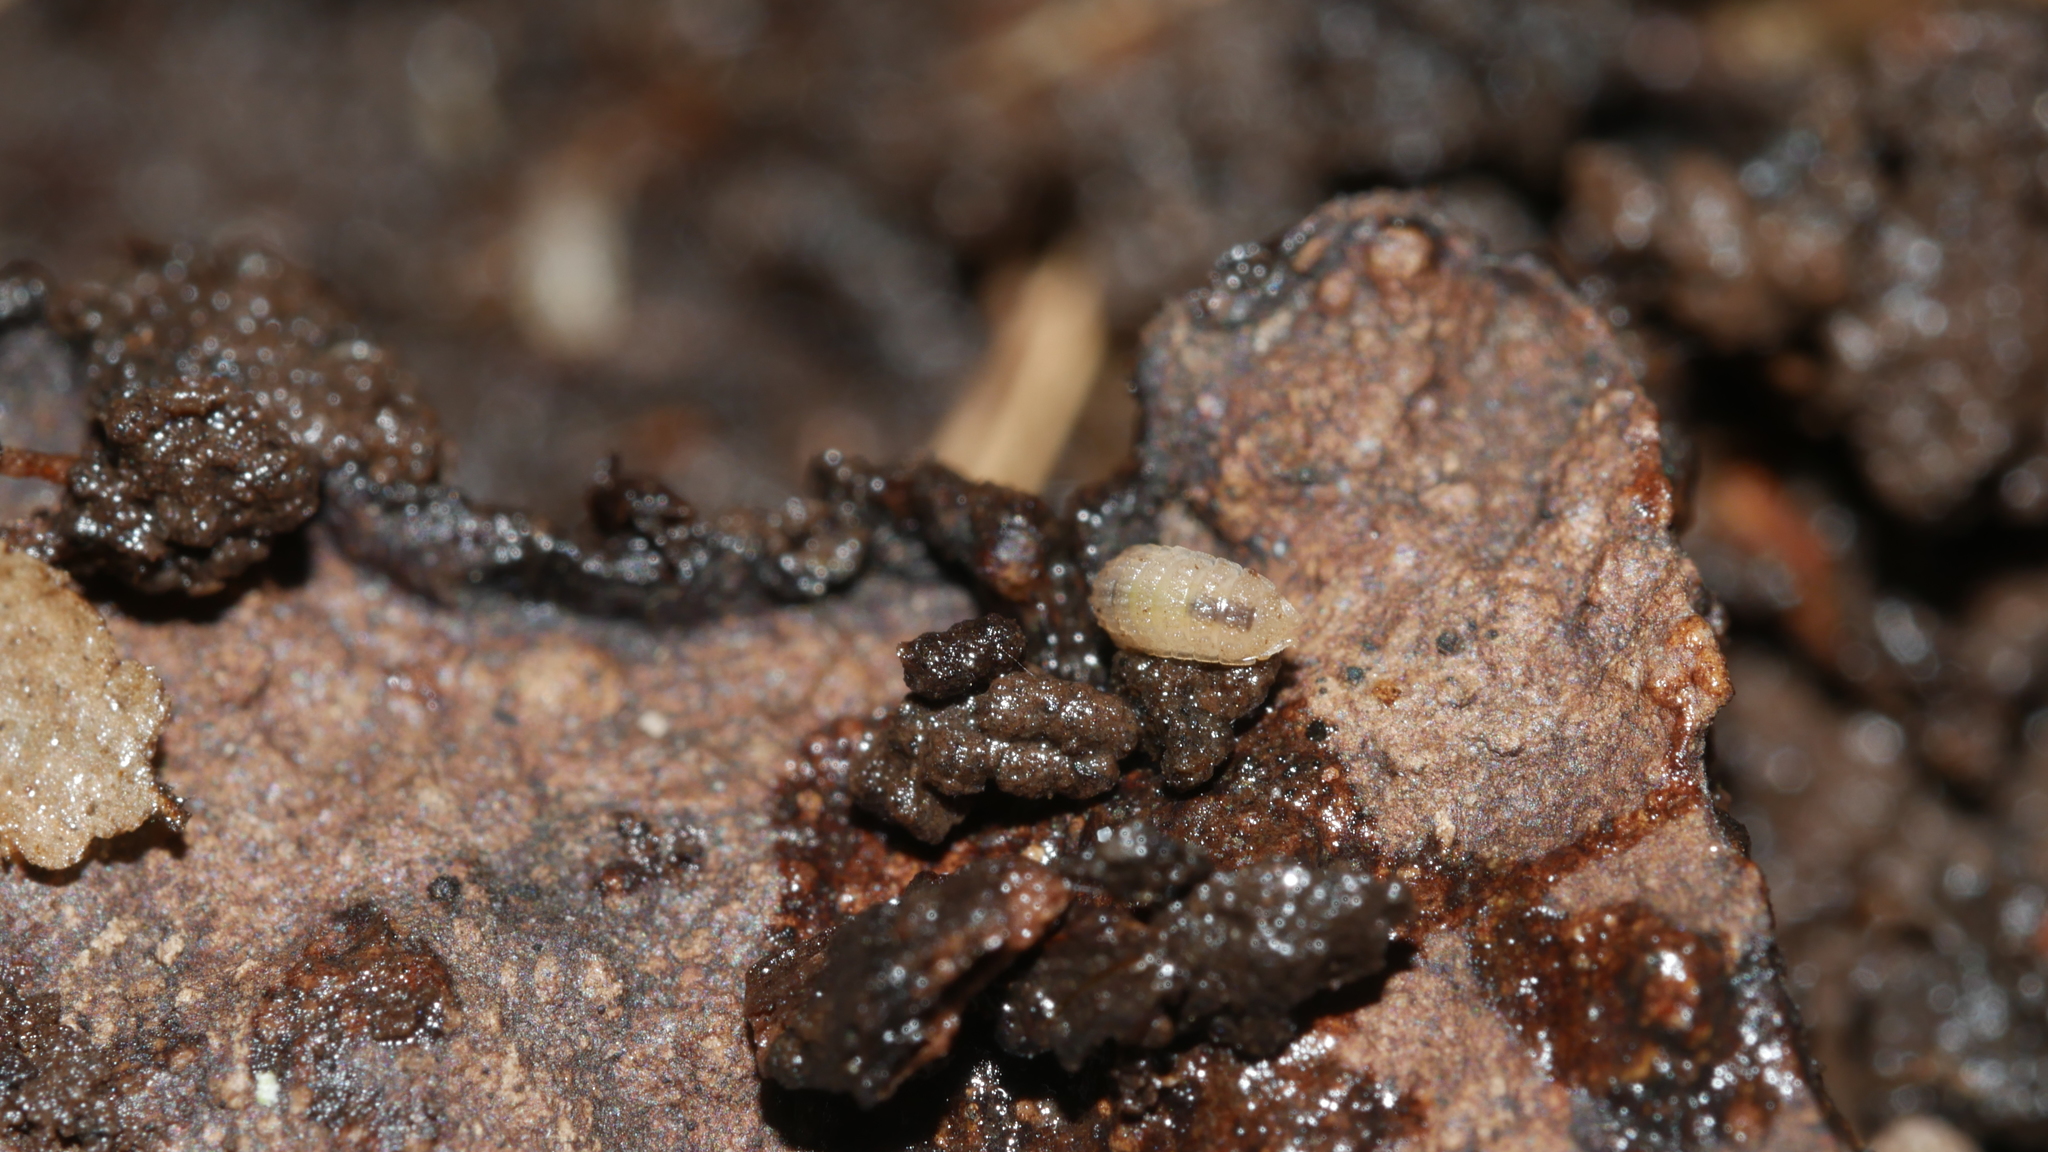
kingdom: Animalia
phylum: Arthropoda
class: Malacostraca
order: Isopoda
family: Trichoniscidae
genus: Haplophthalmus
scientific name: Haplophthalmus danicus
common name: Pillbug
